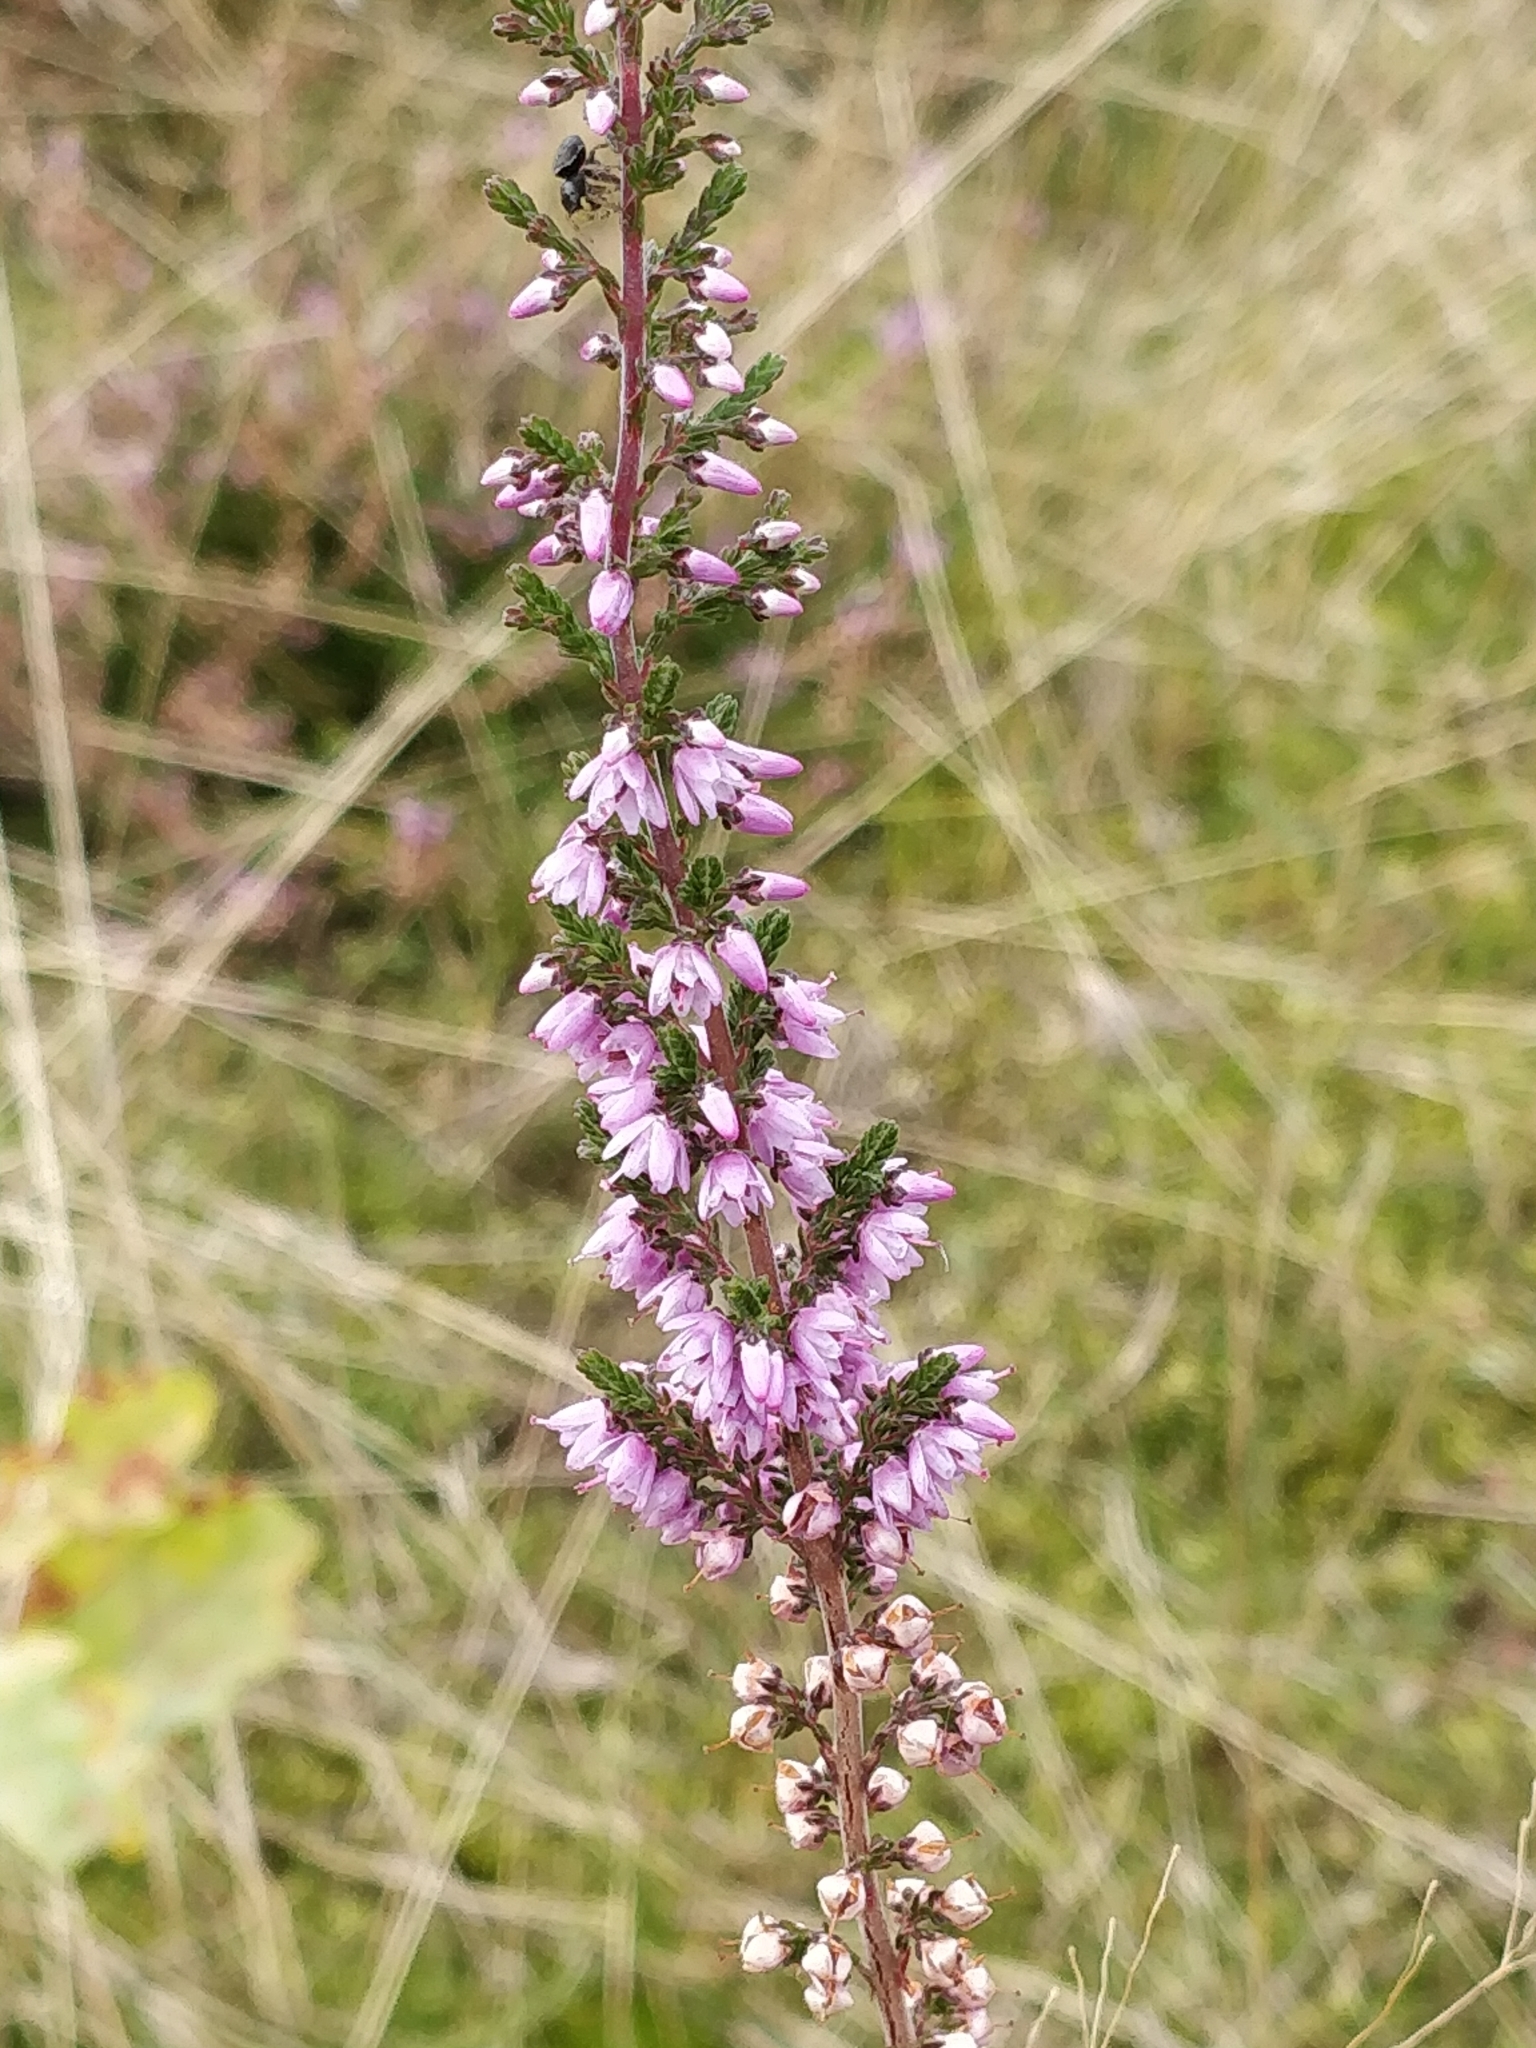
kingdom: Plantae
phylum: Tracheophyta
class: Magnoliopsida
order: Ericales
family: Ericaceae
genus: Calluna
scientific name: Calluna vulgaris
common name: Heather
